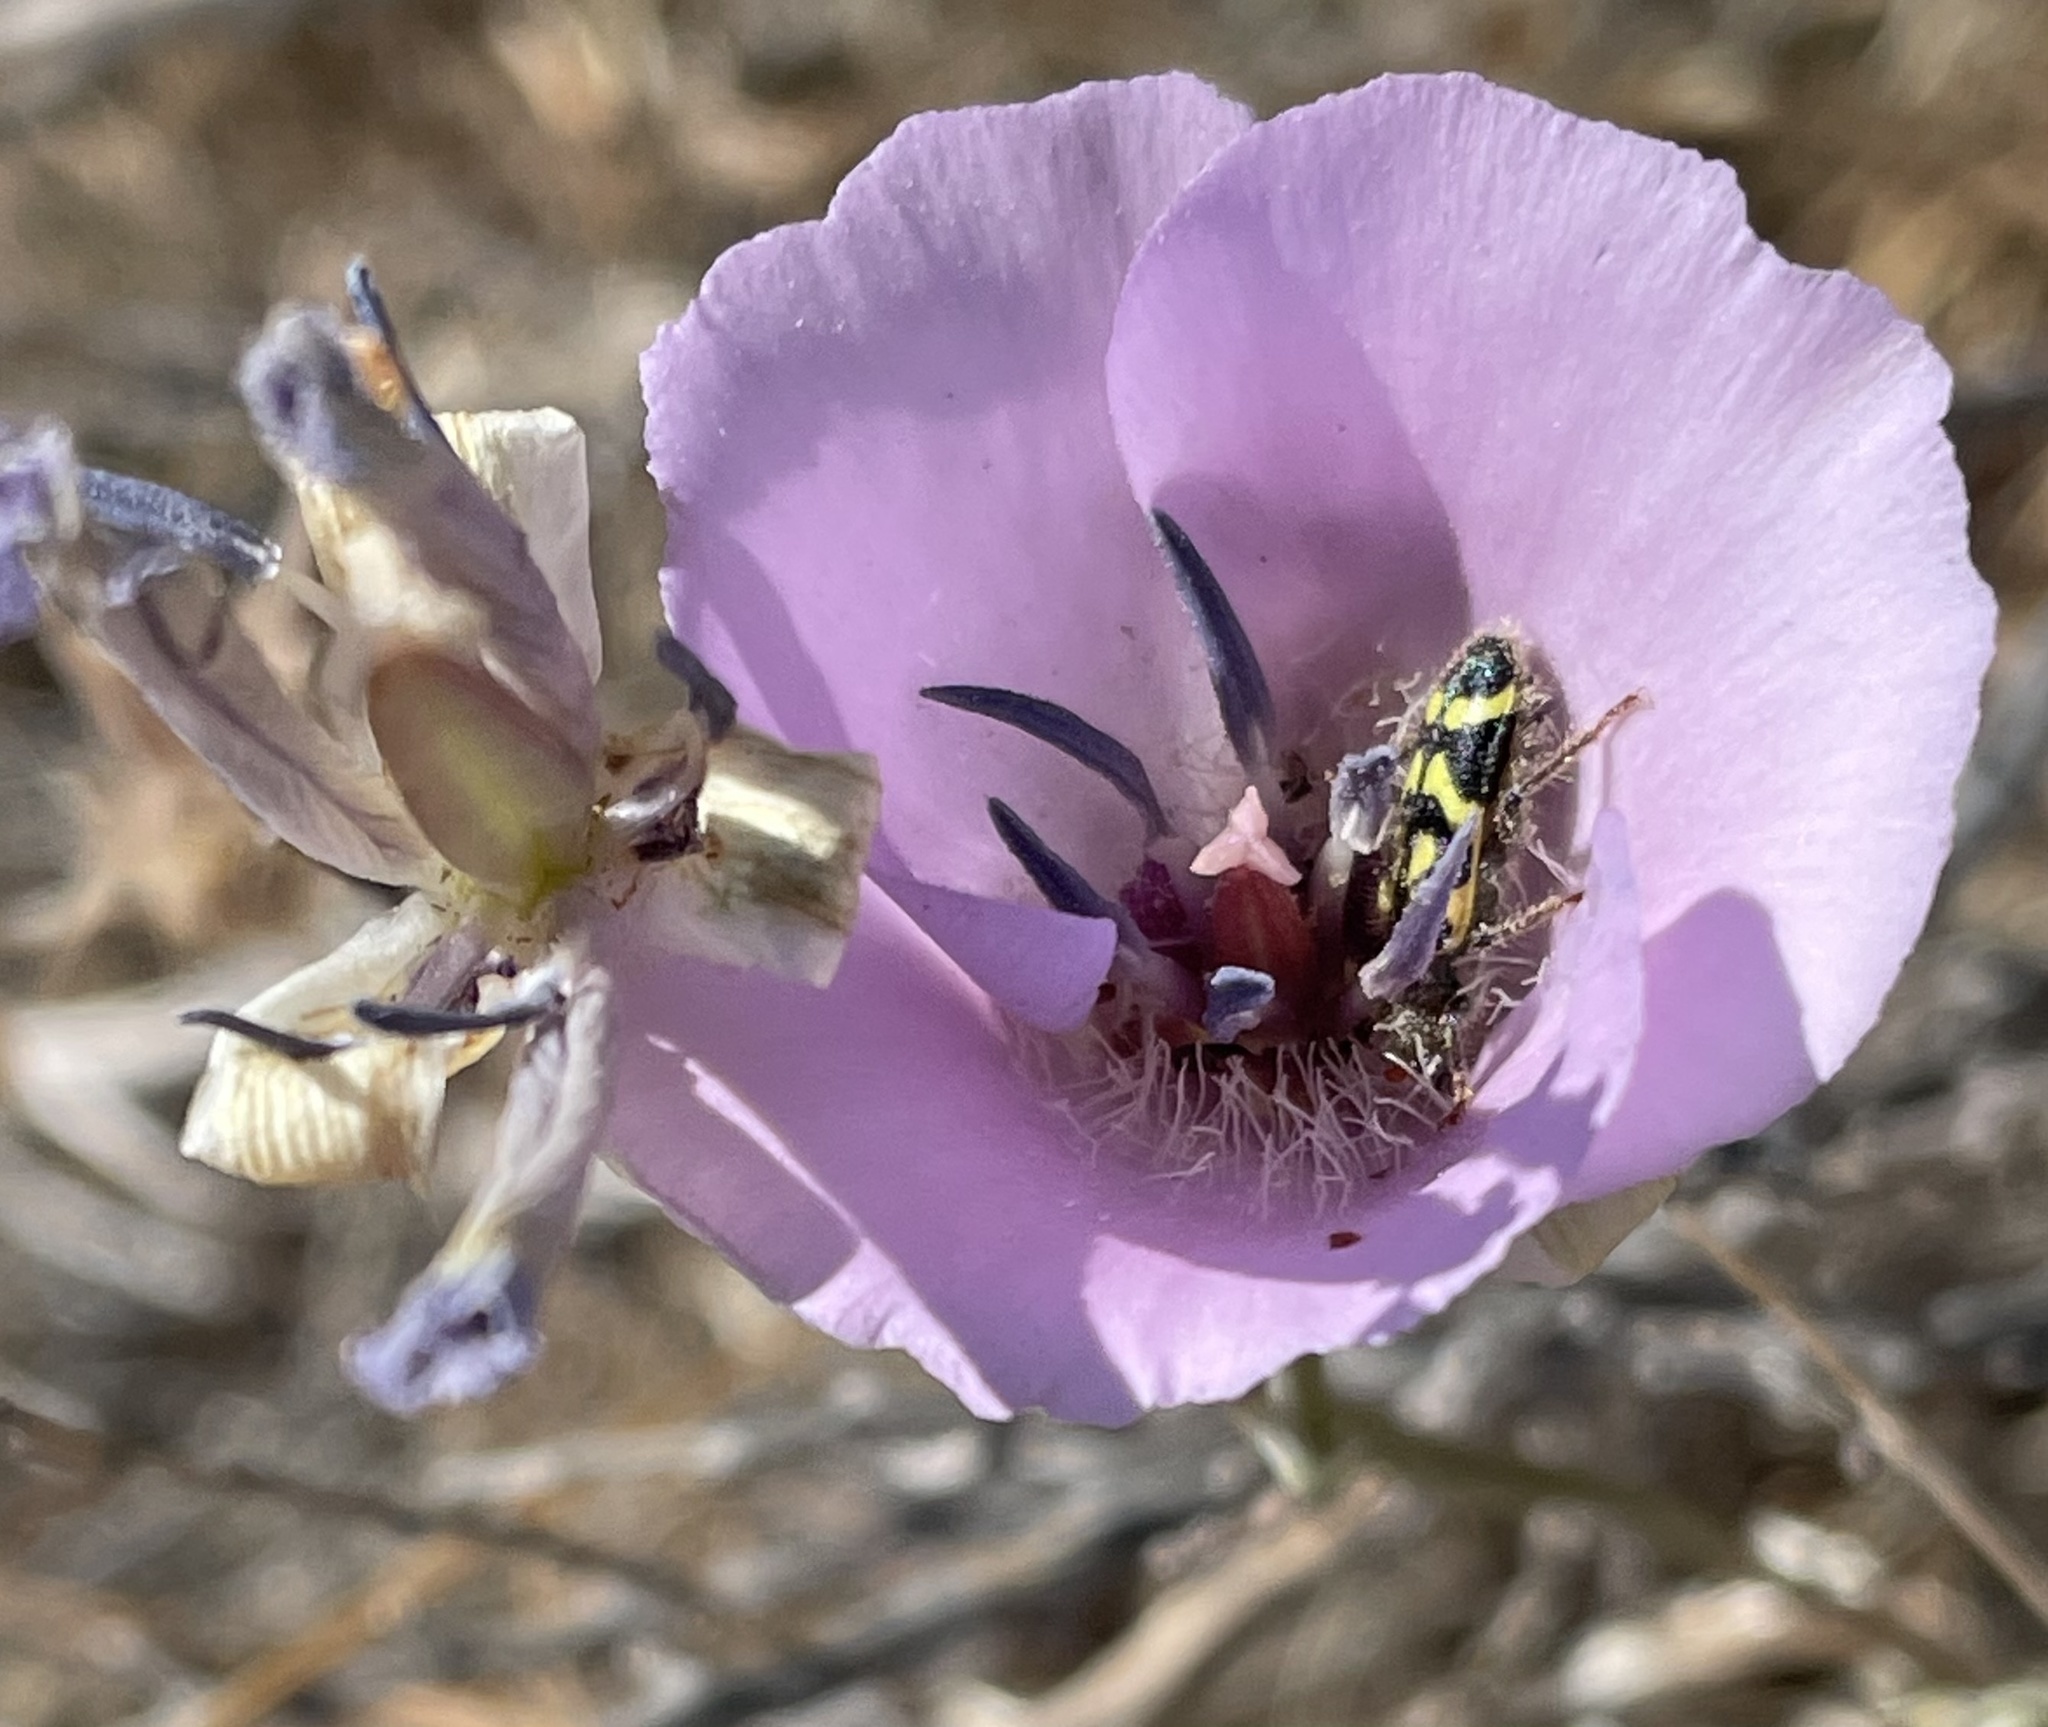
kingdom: Animalia
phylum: Arthropoda
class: Insecta
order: Coleoptera
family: Cleridae
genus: Trichodes
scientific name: Trichodes ornatus
